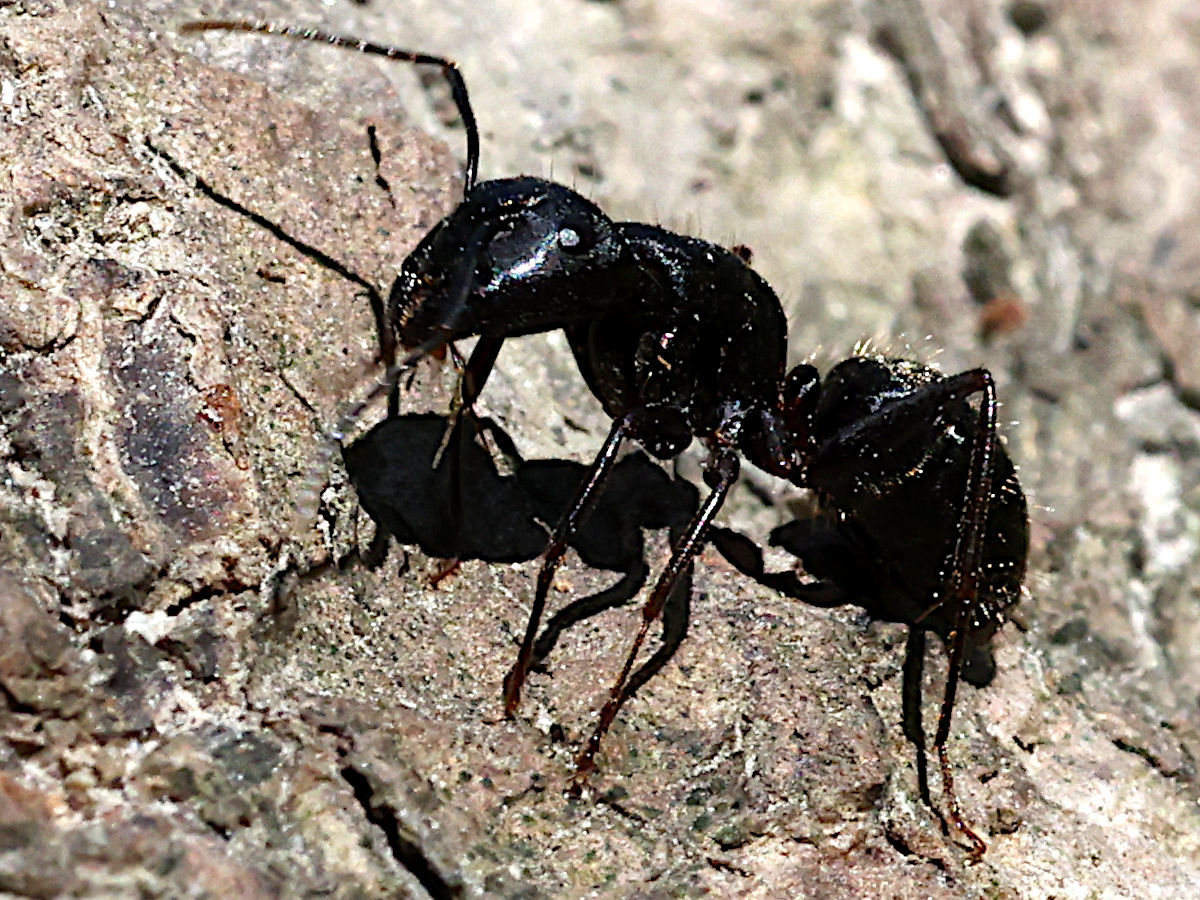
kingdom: Animalia
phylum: Arthropoda
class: Insecta
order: Hymenoptera
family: Formicidae
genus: Camponotus
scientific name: Camponotus pennsylvanicus
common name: Black carpenter ant
